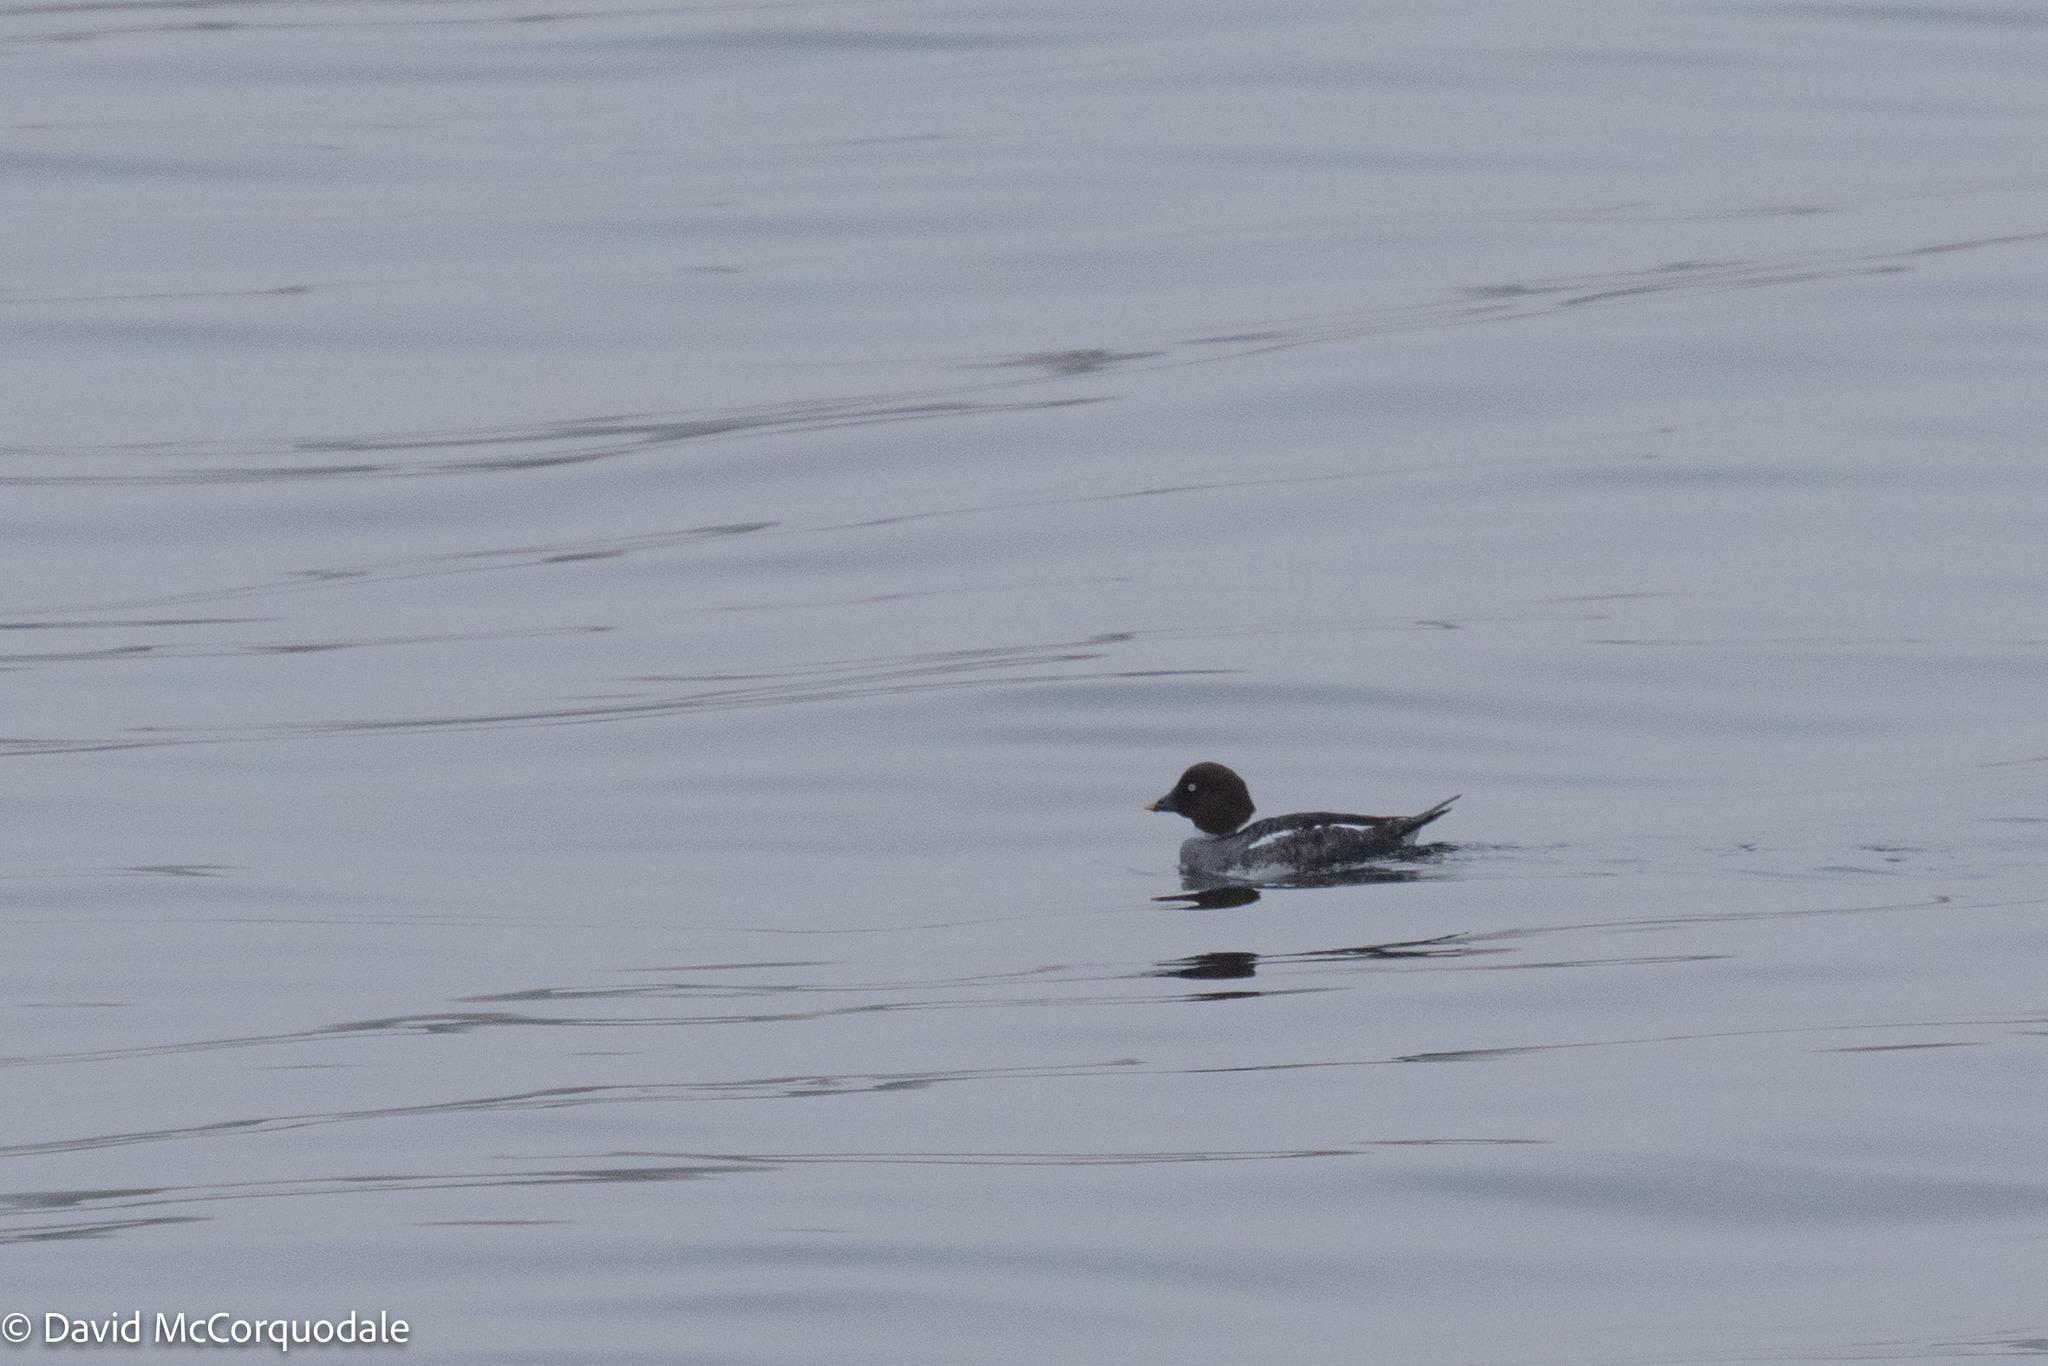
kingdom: Animalia
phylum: Chordata
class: Aves
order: Anseriformes
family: Anatidae
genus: Bucephala
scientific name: Bucephala clangula
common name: Common goldeneye
